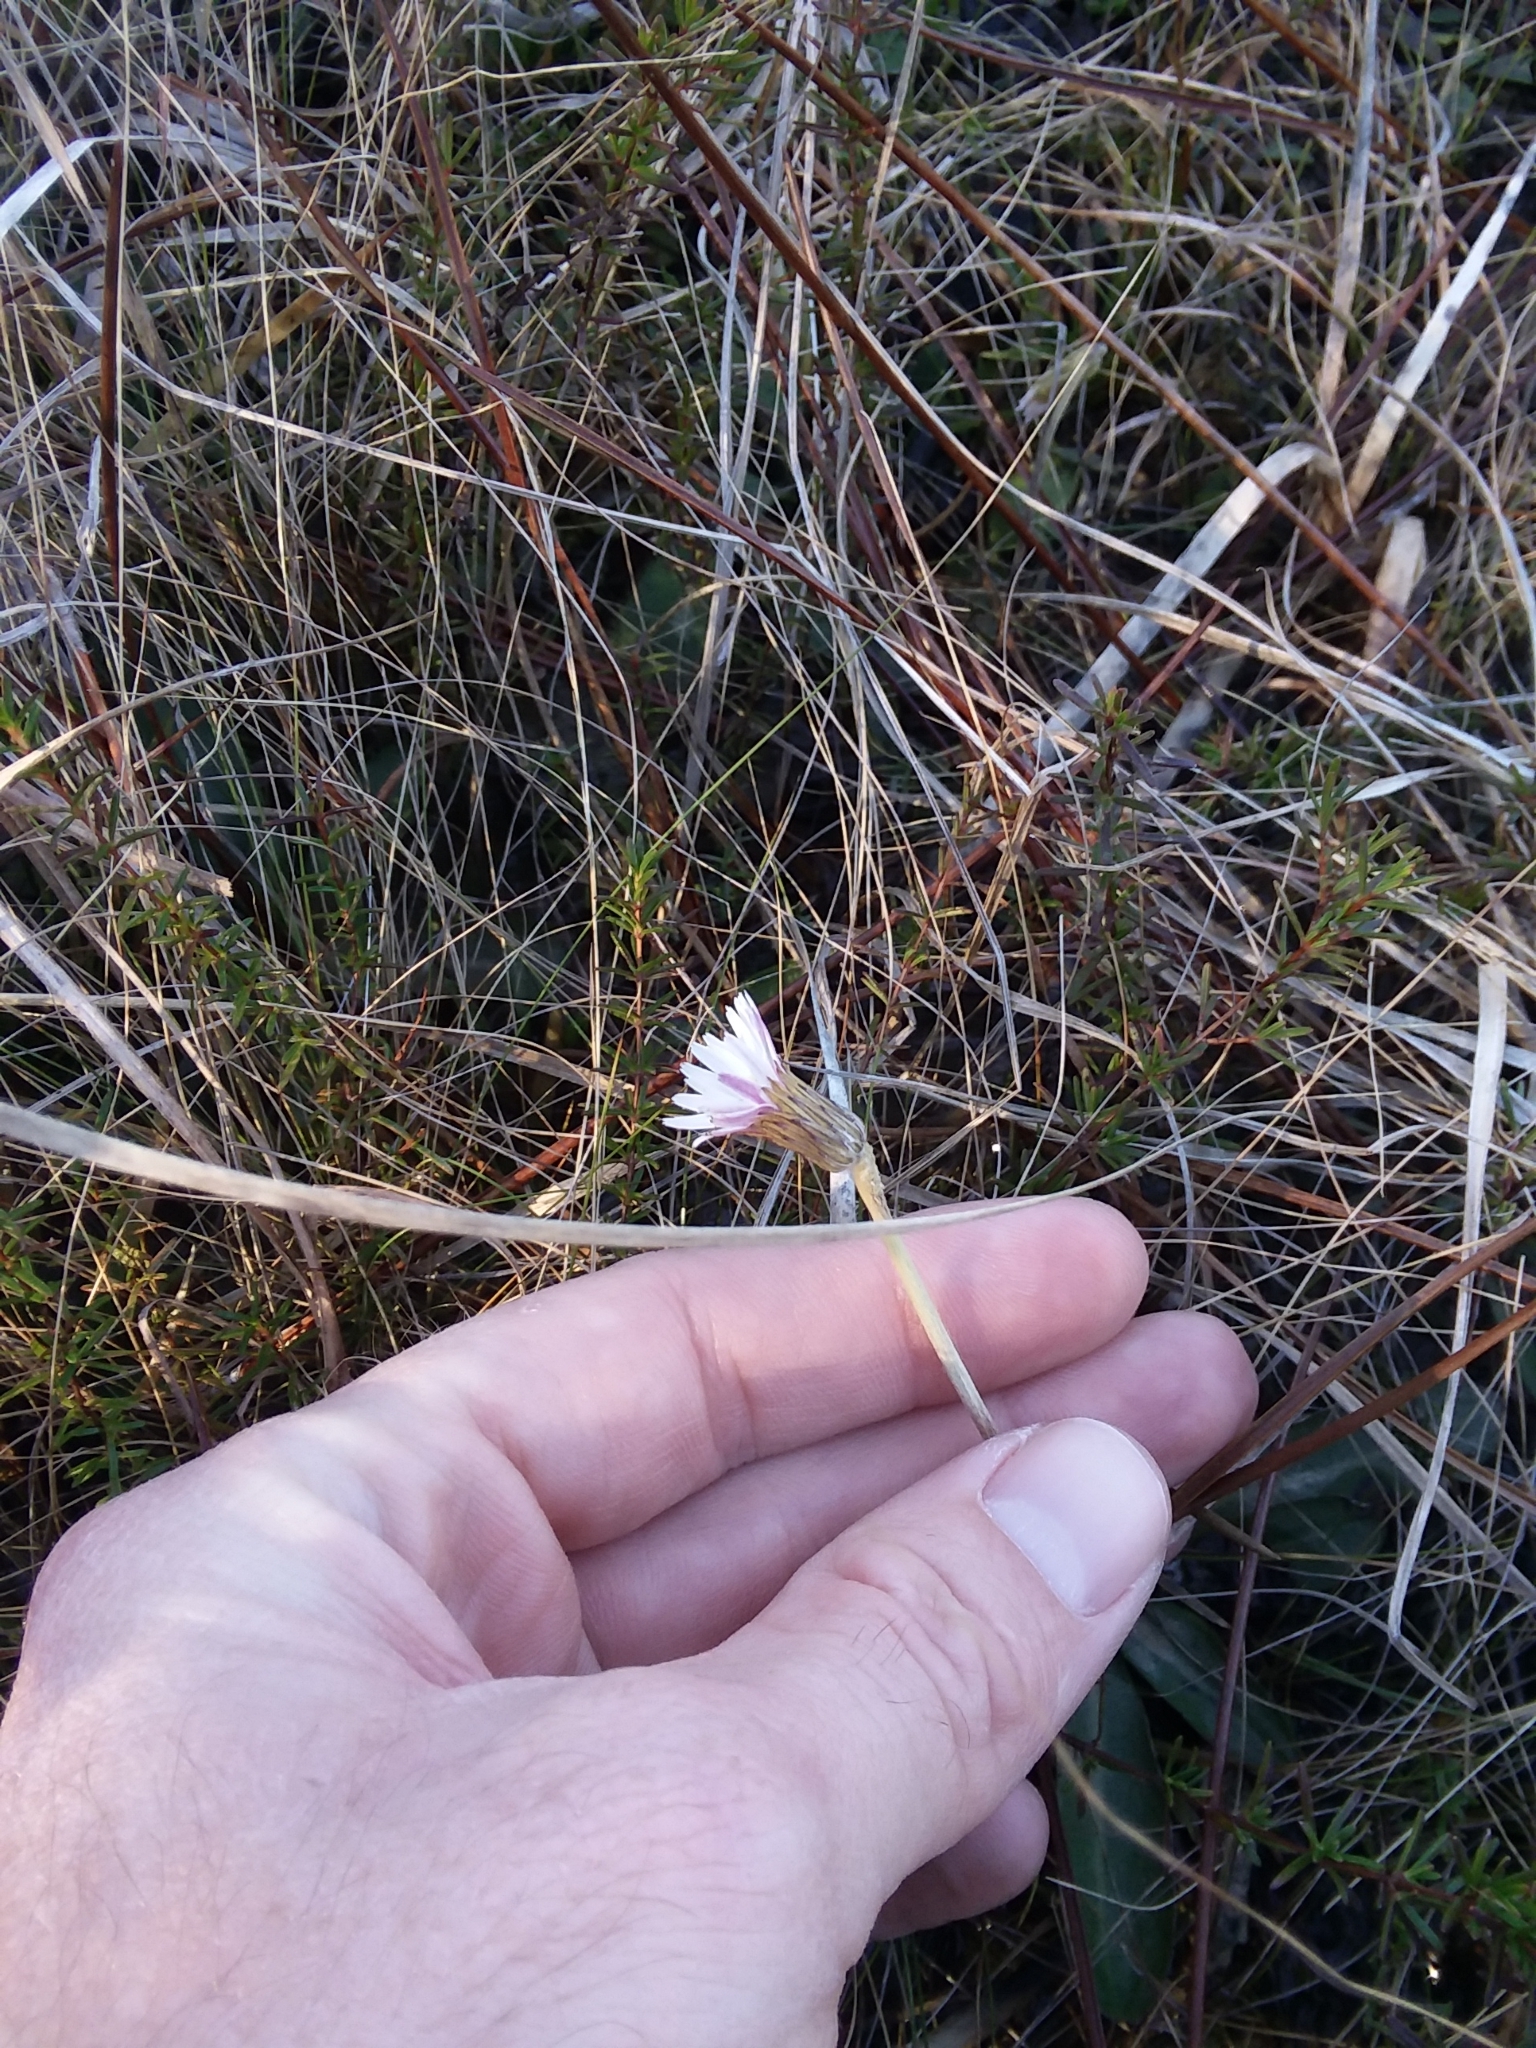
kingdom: Plantae
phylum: Tracheophyta
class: Magnoliopsida
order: Asterales
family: Asteraceae
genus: Chaptalia
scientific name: Chaptalia tomentosa
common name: Woolly sunbonnet
